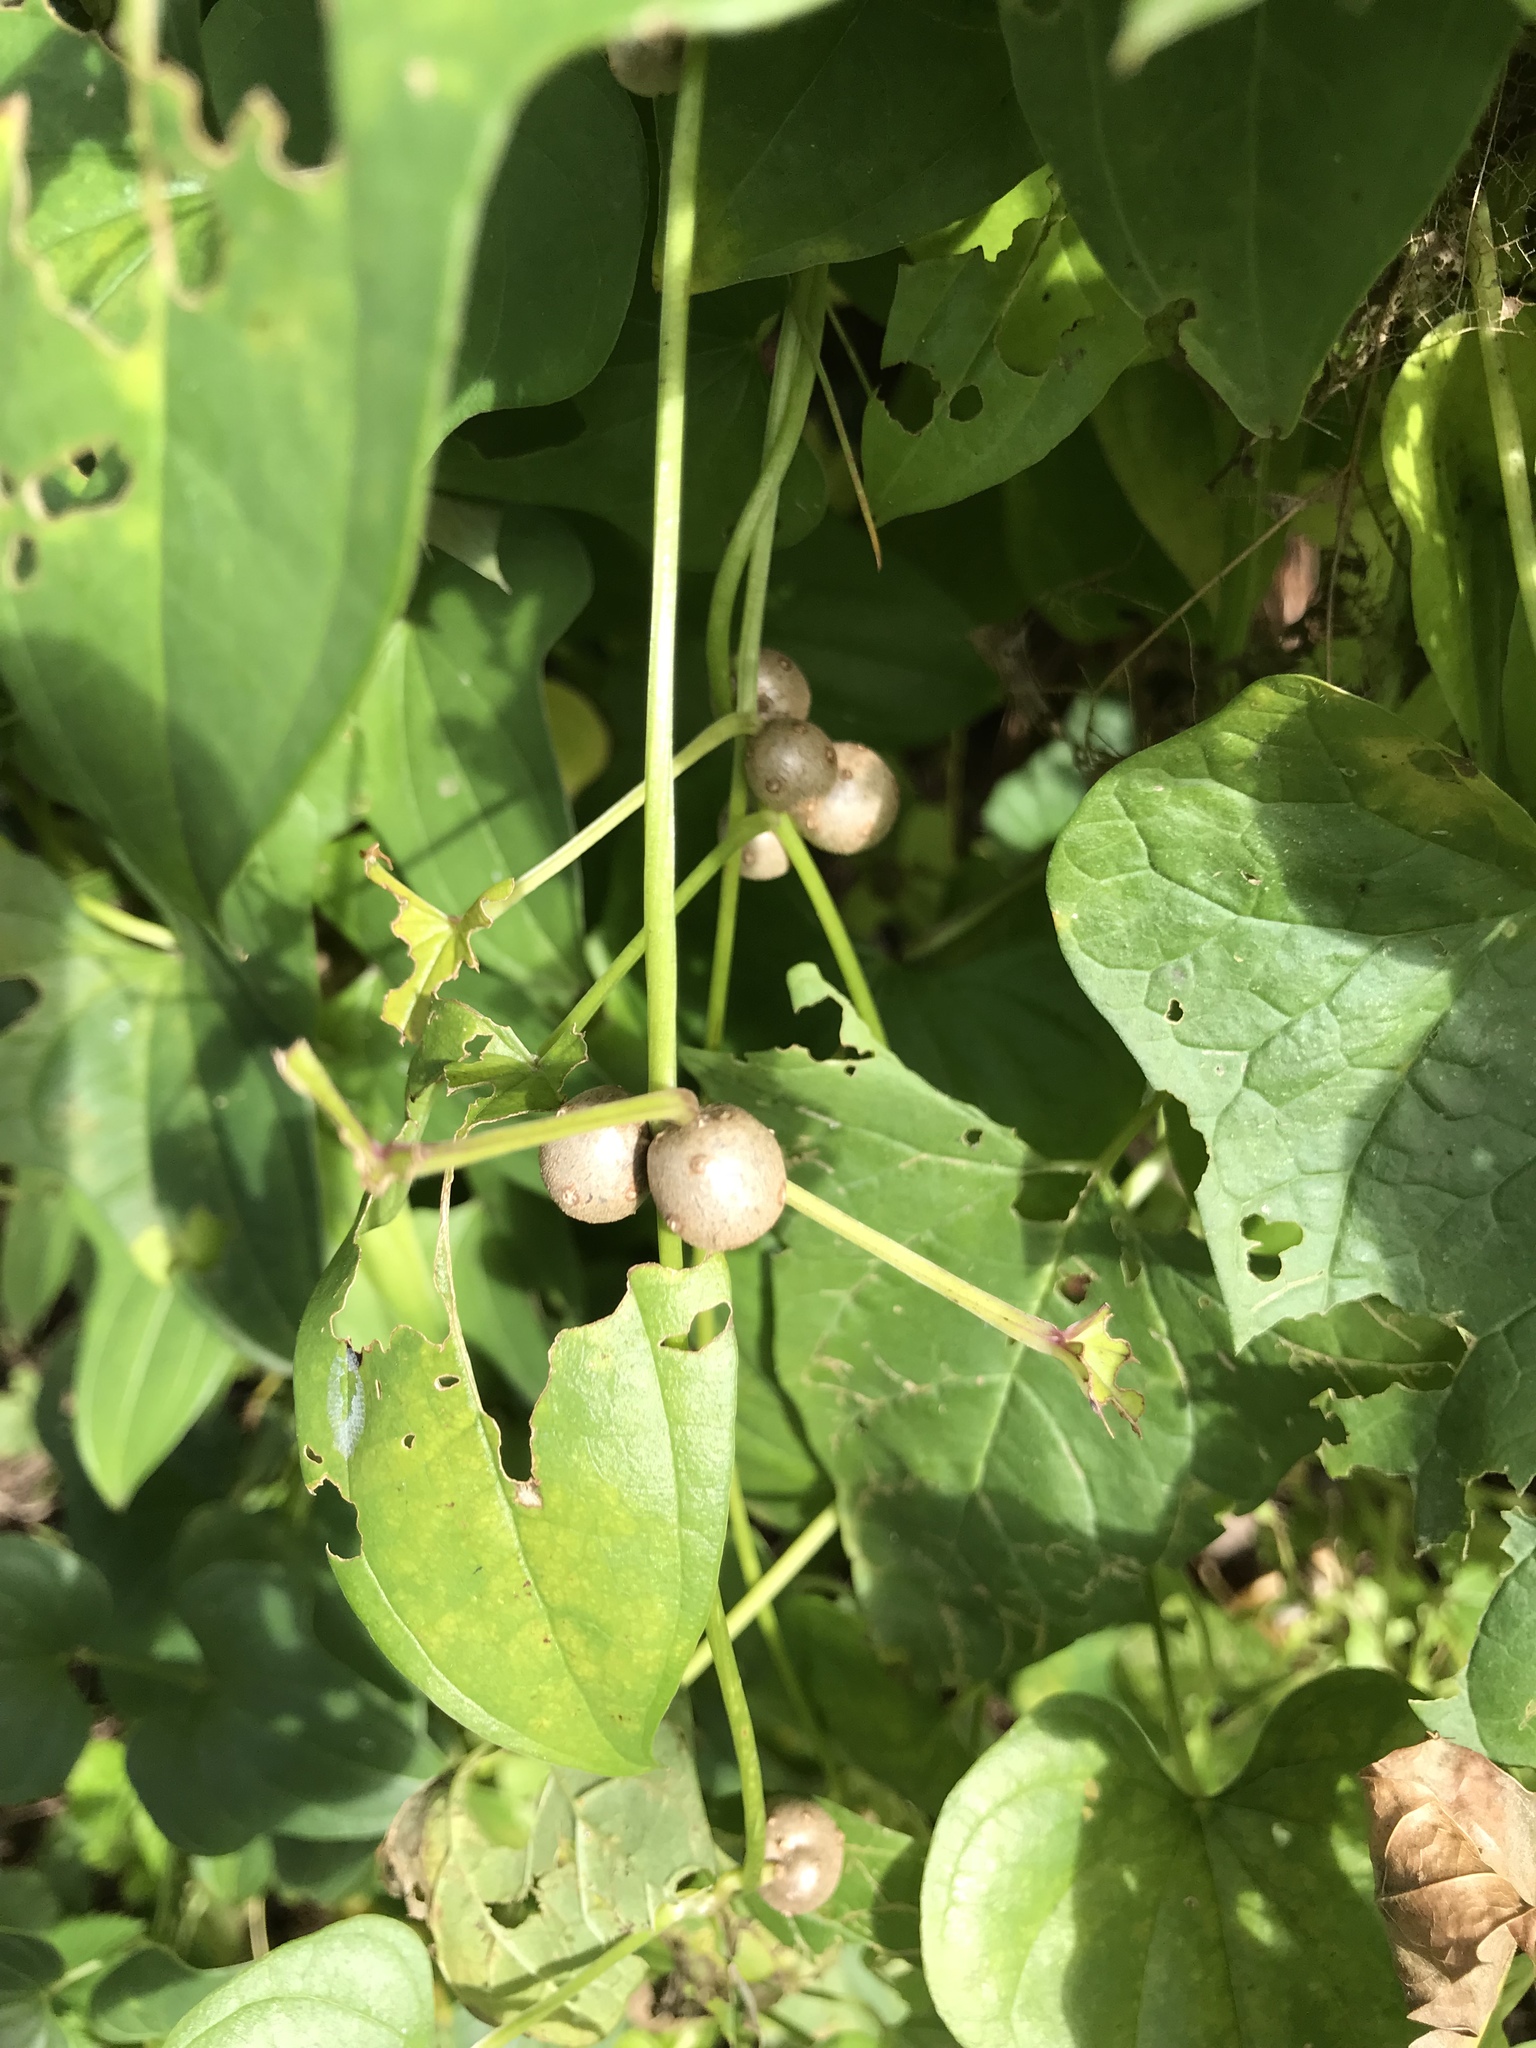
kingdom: Plantae
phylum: Tracheophyta
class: Liliopsida
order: Dioscoreales
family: Dioscoreaceae
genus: Dioscorea
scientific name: Dioscorea polystachya
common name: Chinese yam
